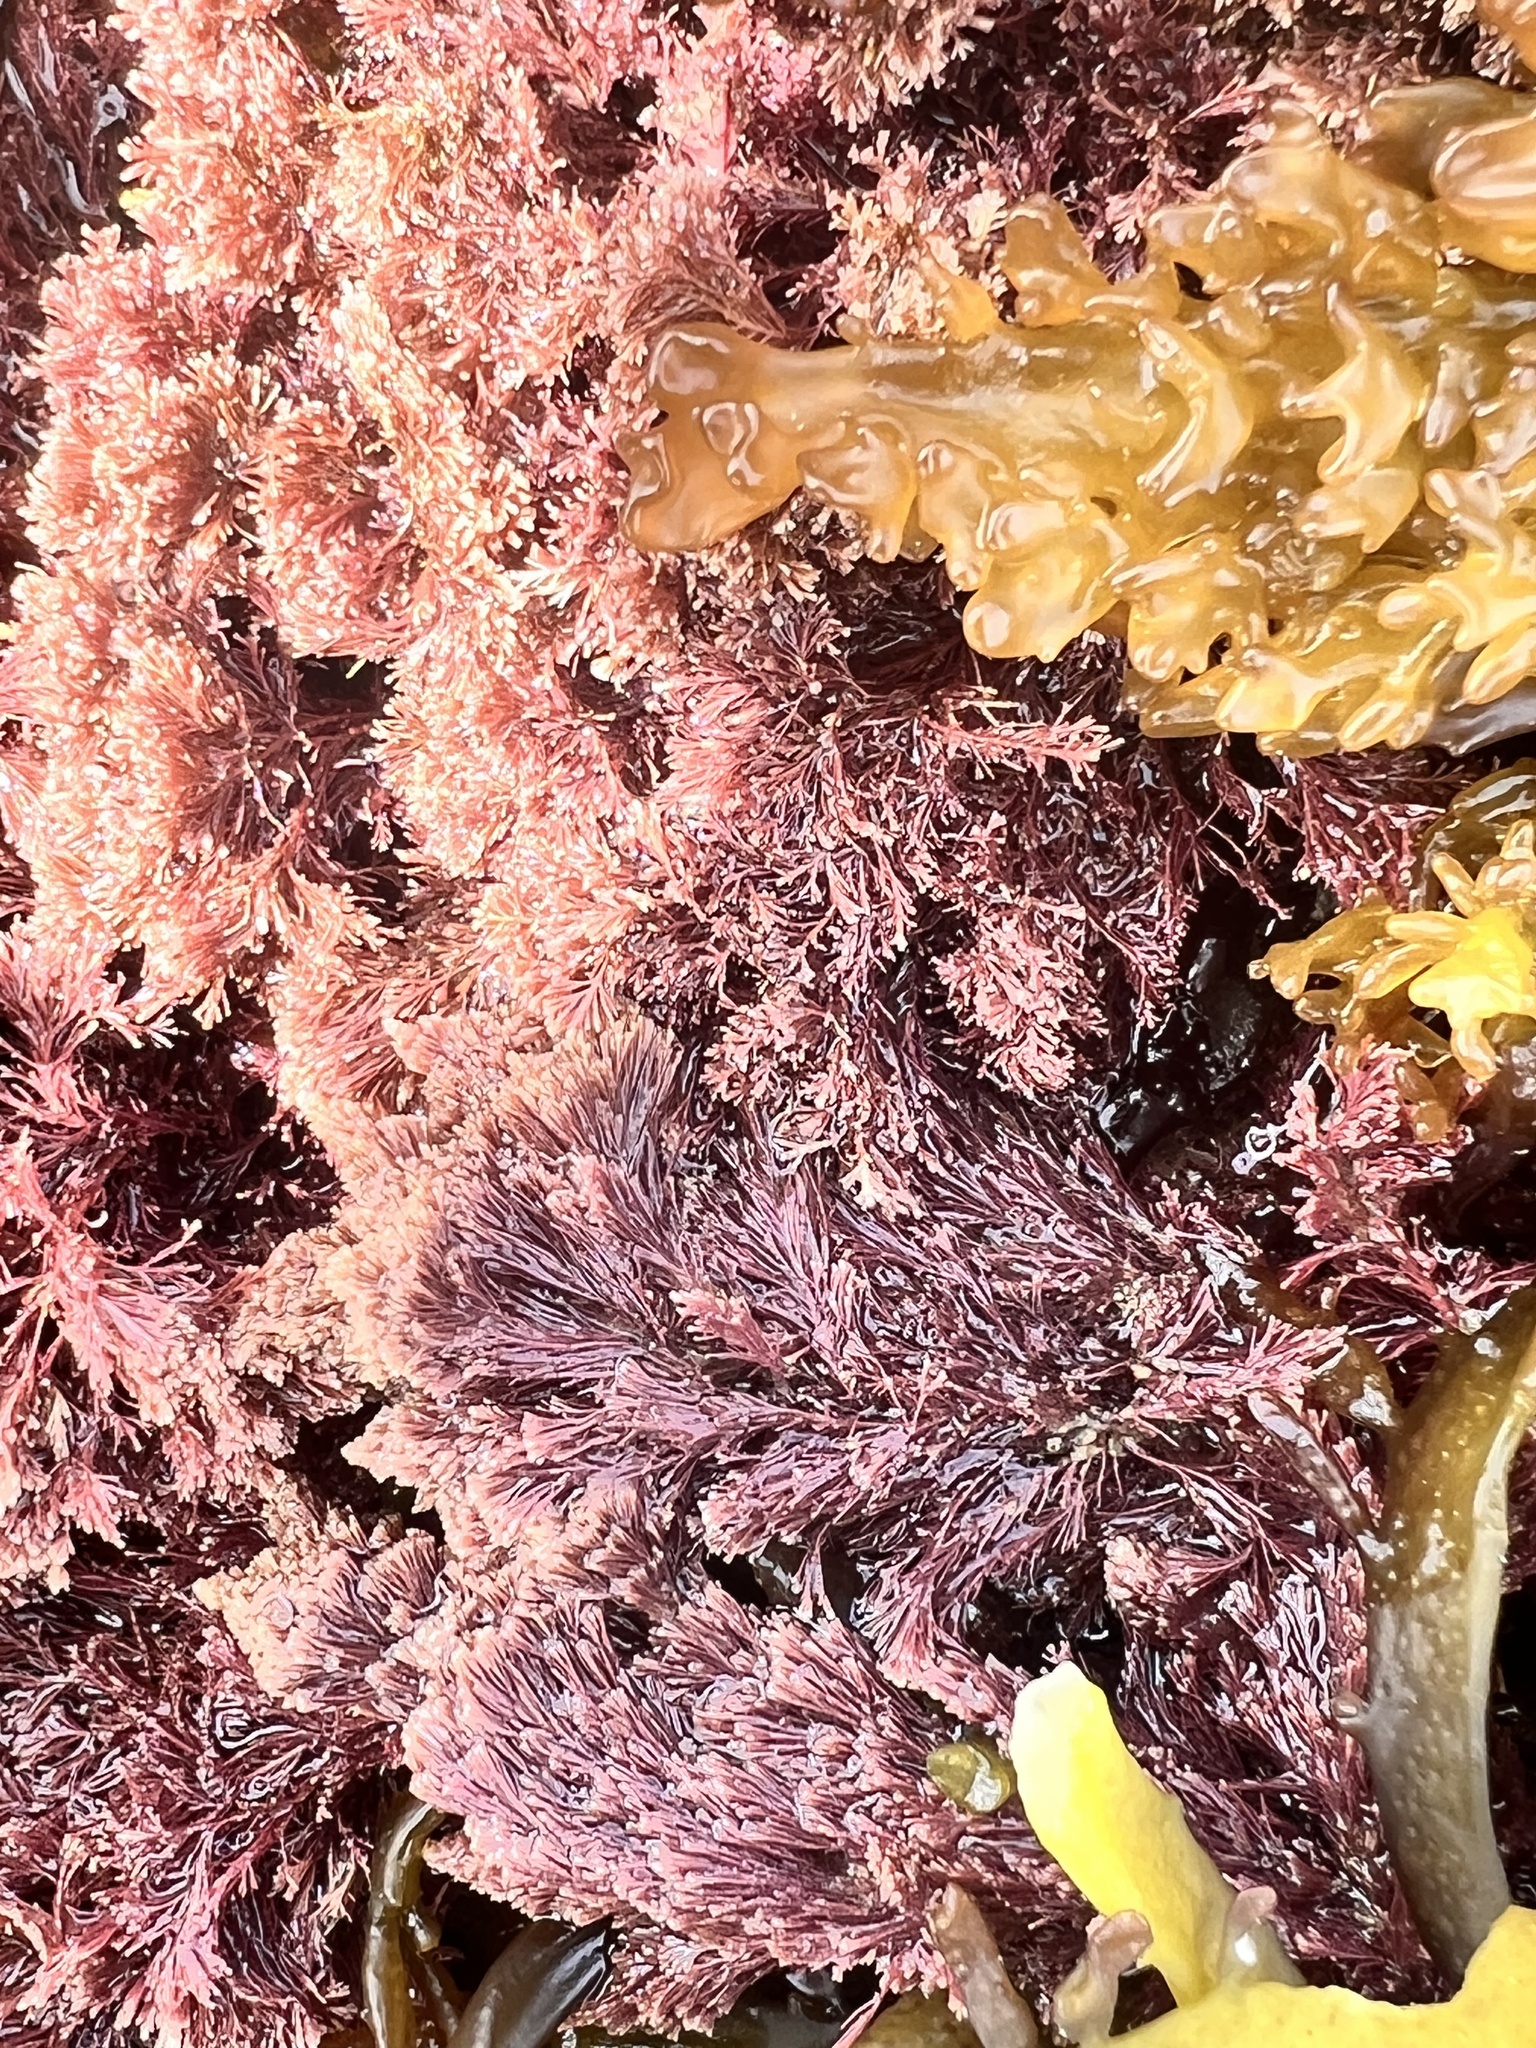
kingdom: Plantae
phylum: Rhodophyta
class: Florideophyceae
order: Corallinales
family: Corallinaceae
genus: Jania
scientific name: Jania sphaeroramosa
